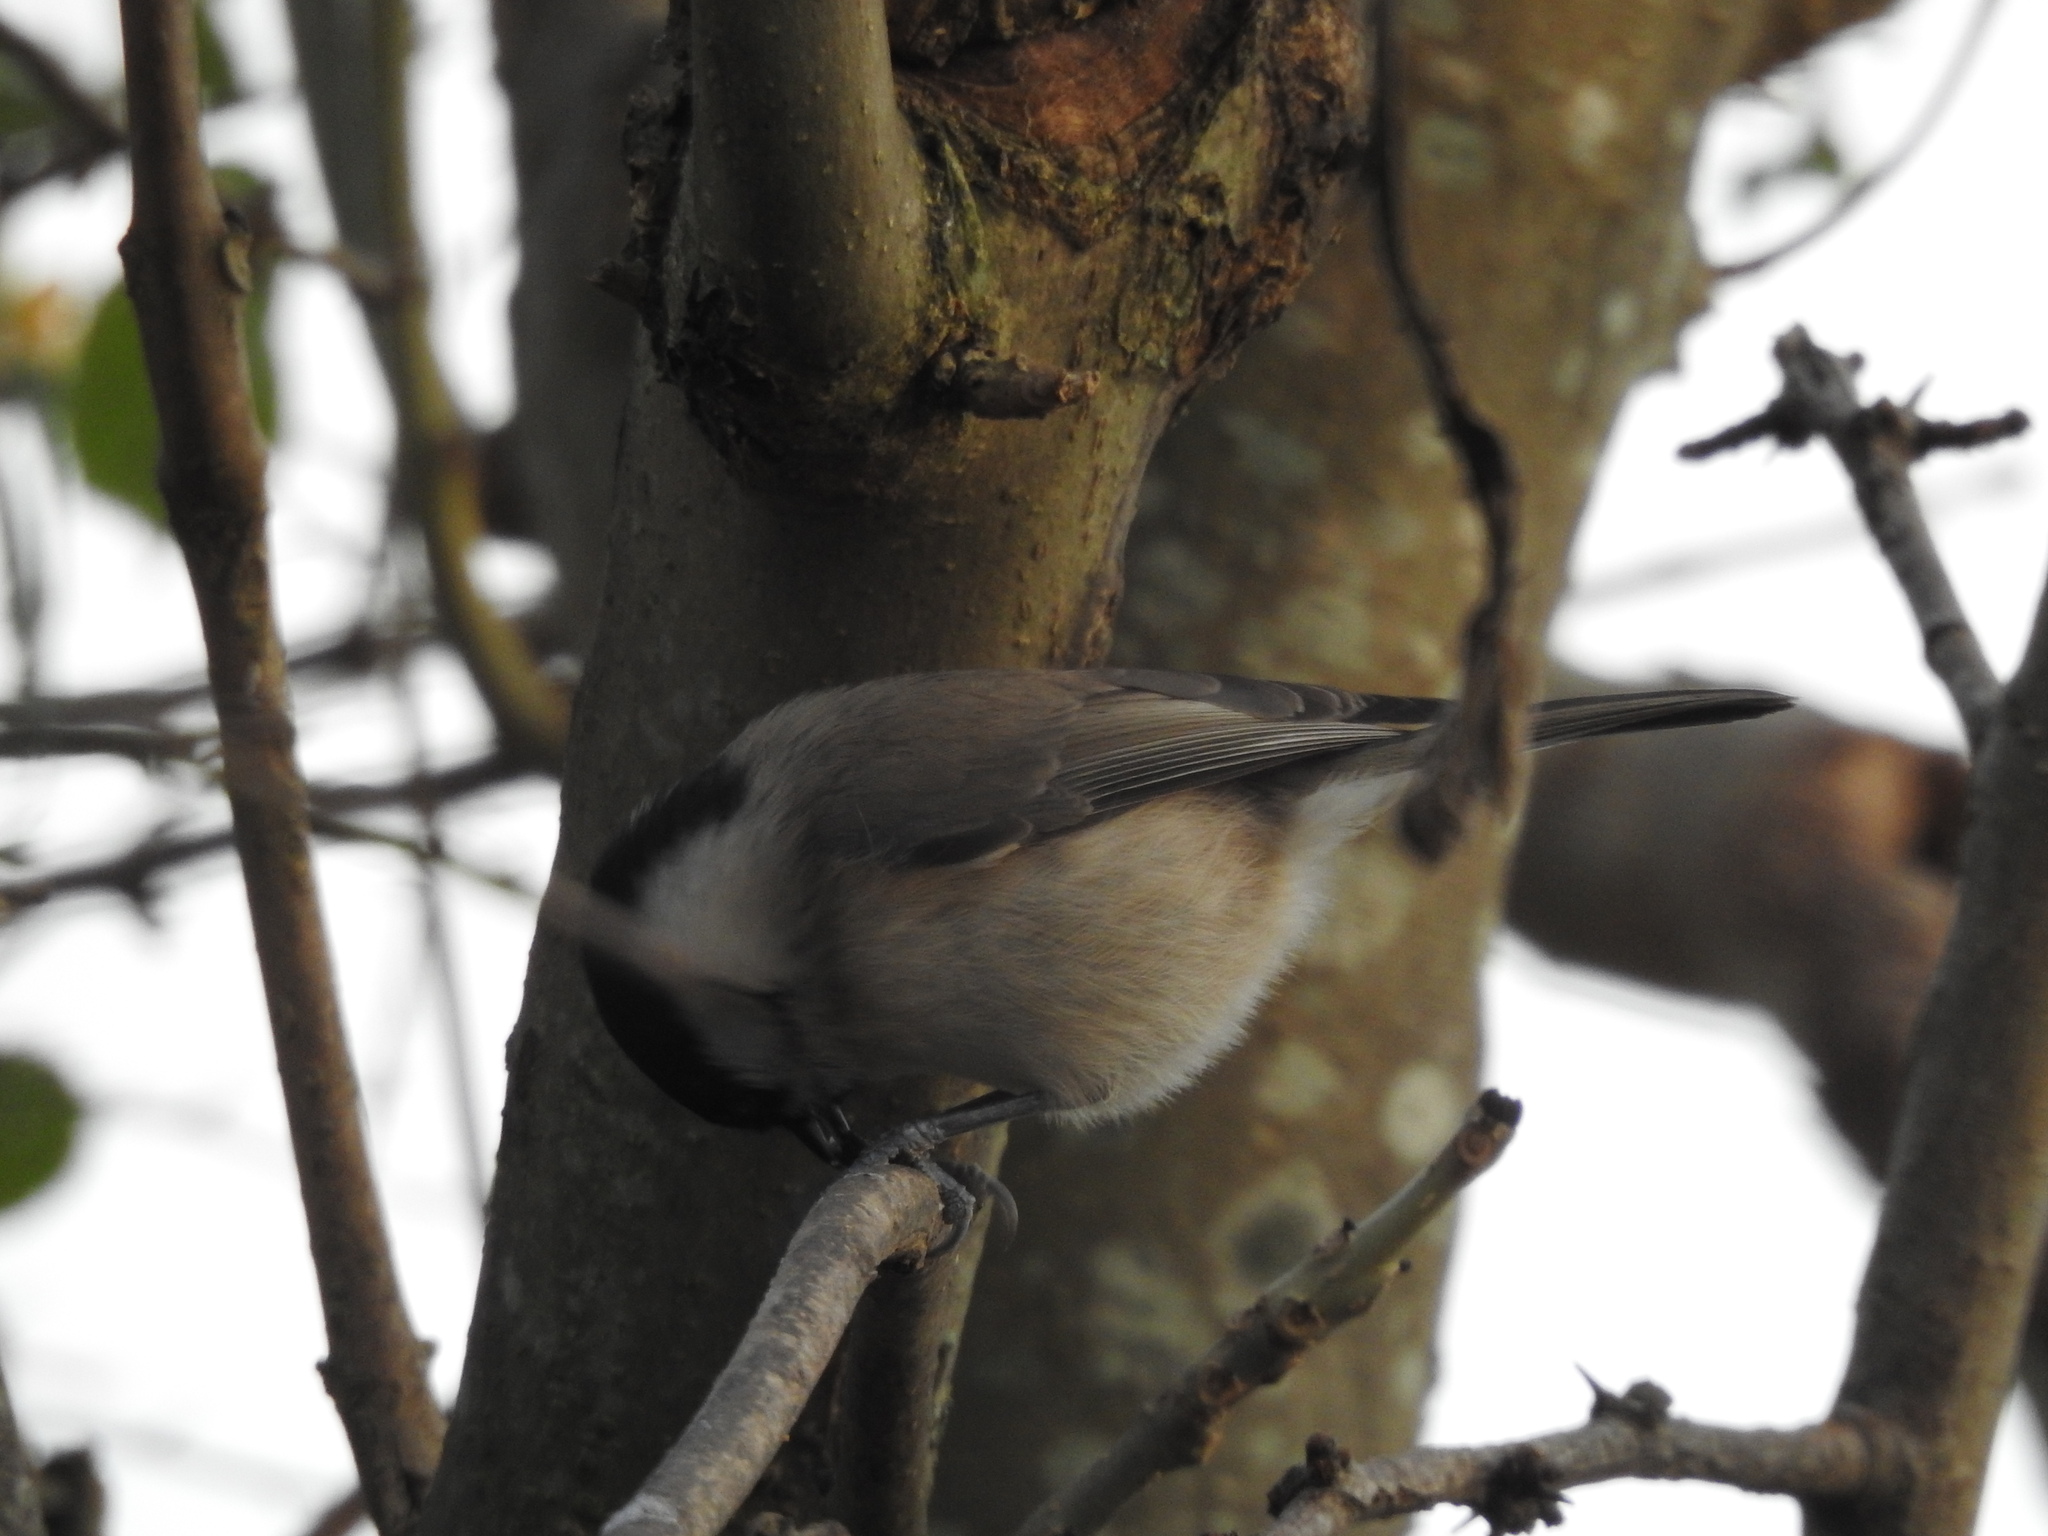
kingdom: Animalia
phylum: Chordata
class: Aves
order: Passeriformes
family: Paridae
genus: Poecile
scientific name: Poecile palustris
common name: Marsh tit
